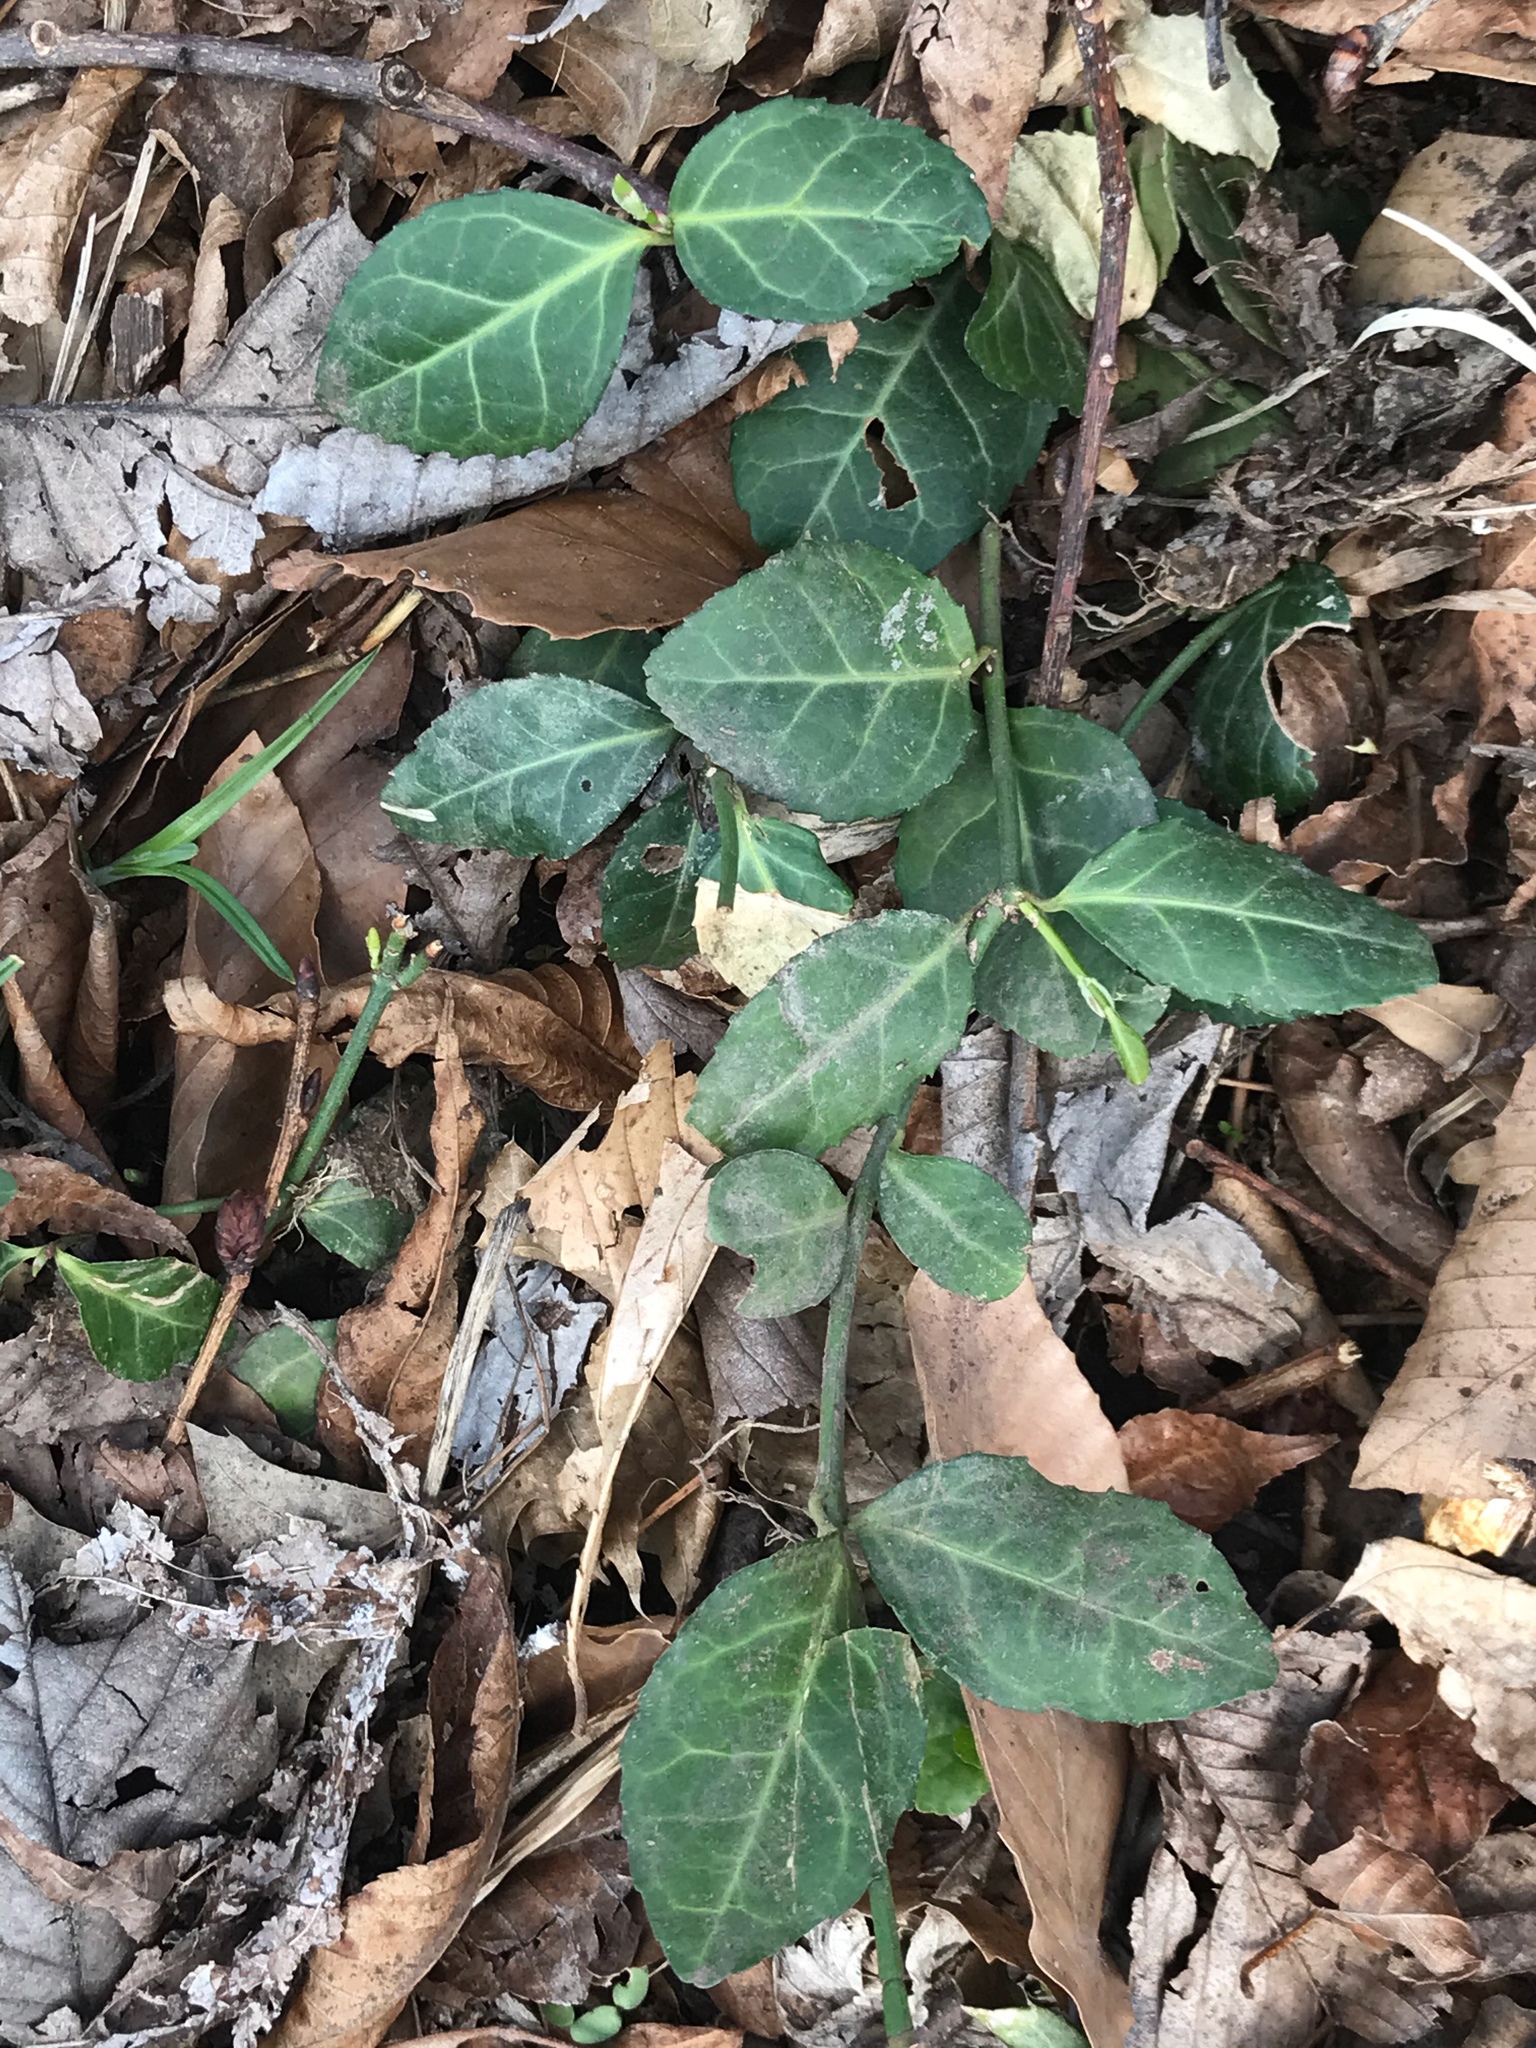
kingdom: Plantae
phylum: Tracheophyta
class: Magnoliopsida
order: Celastrales
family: Celastraceae
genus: Euonymus
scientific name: Euonymus fortunei
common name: Climbing euonymus
